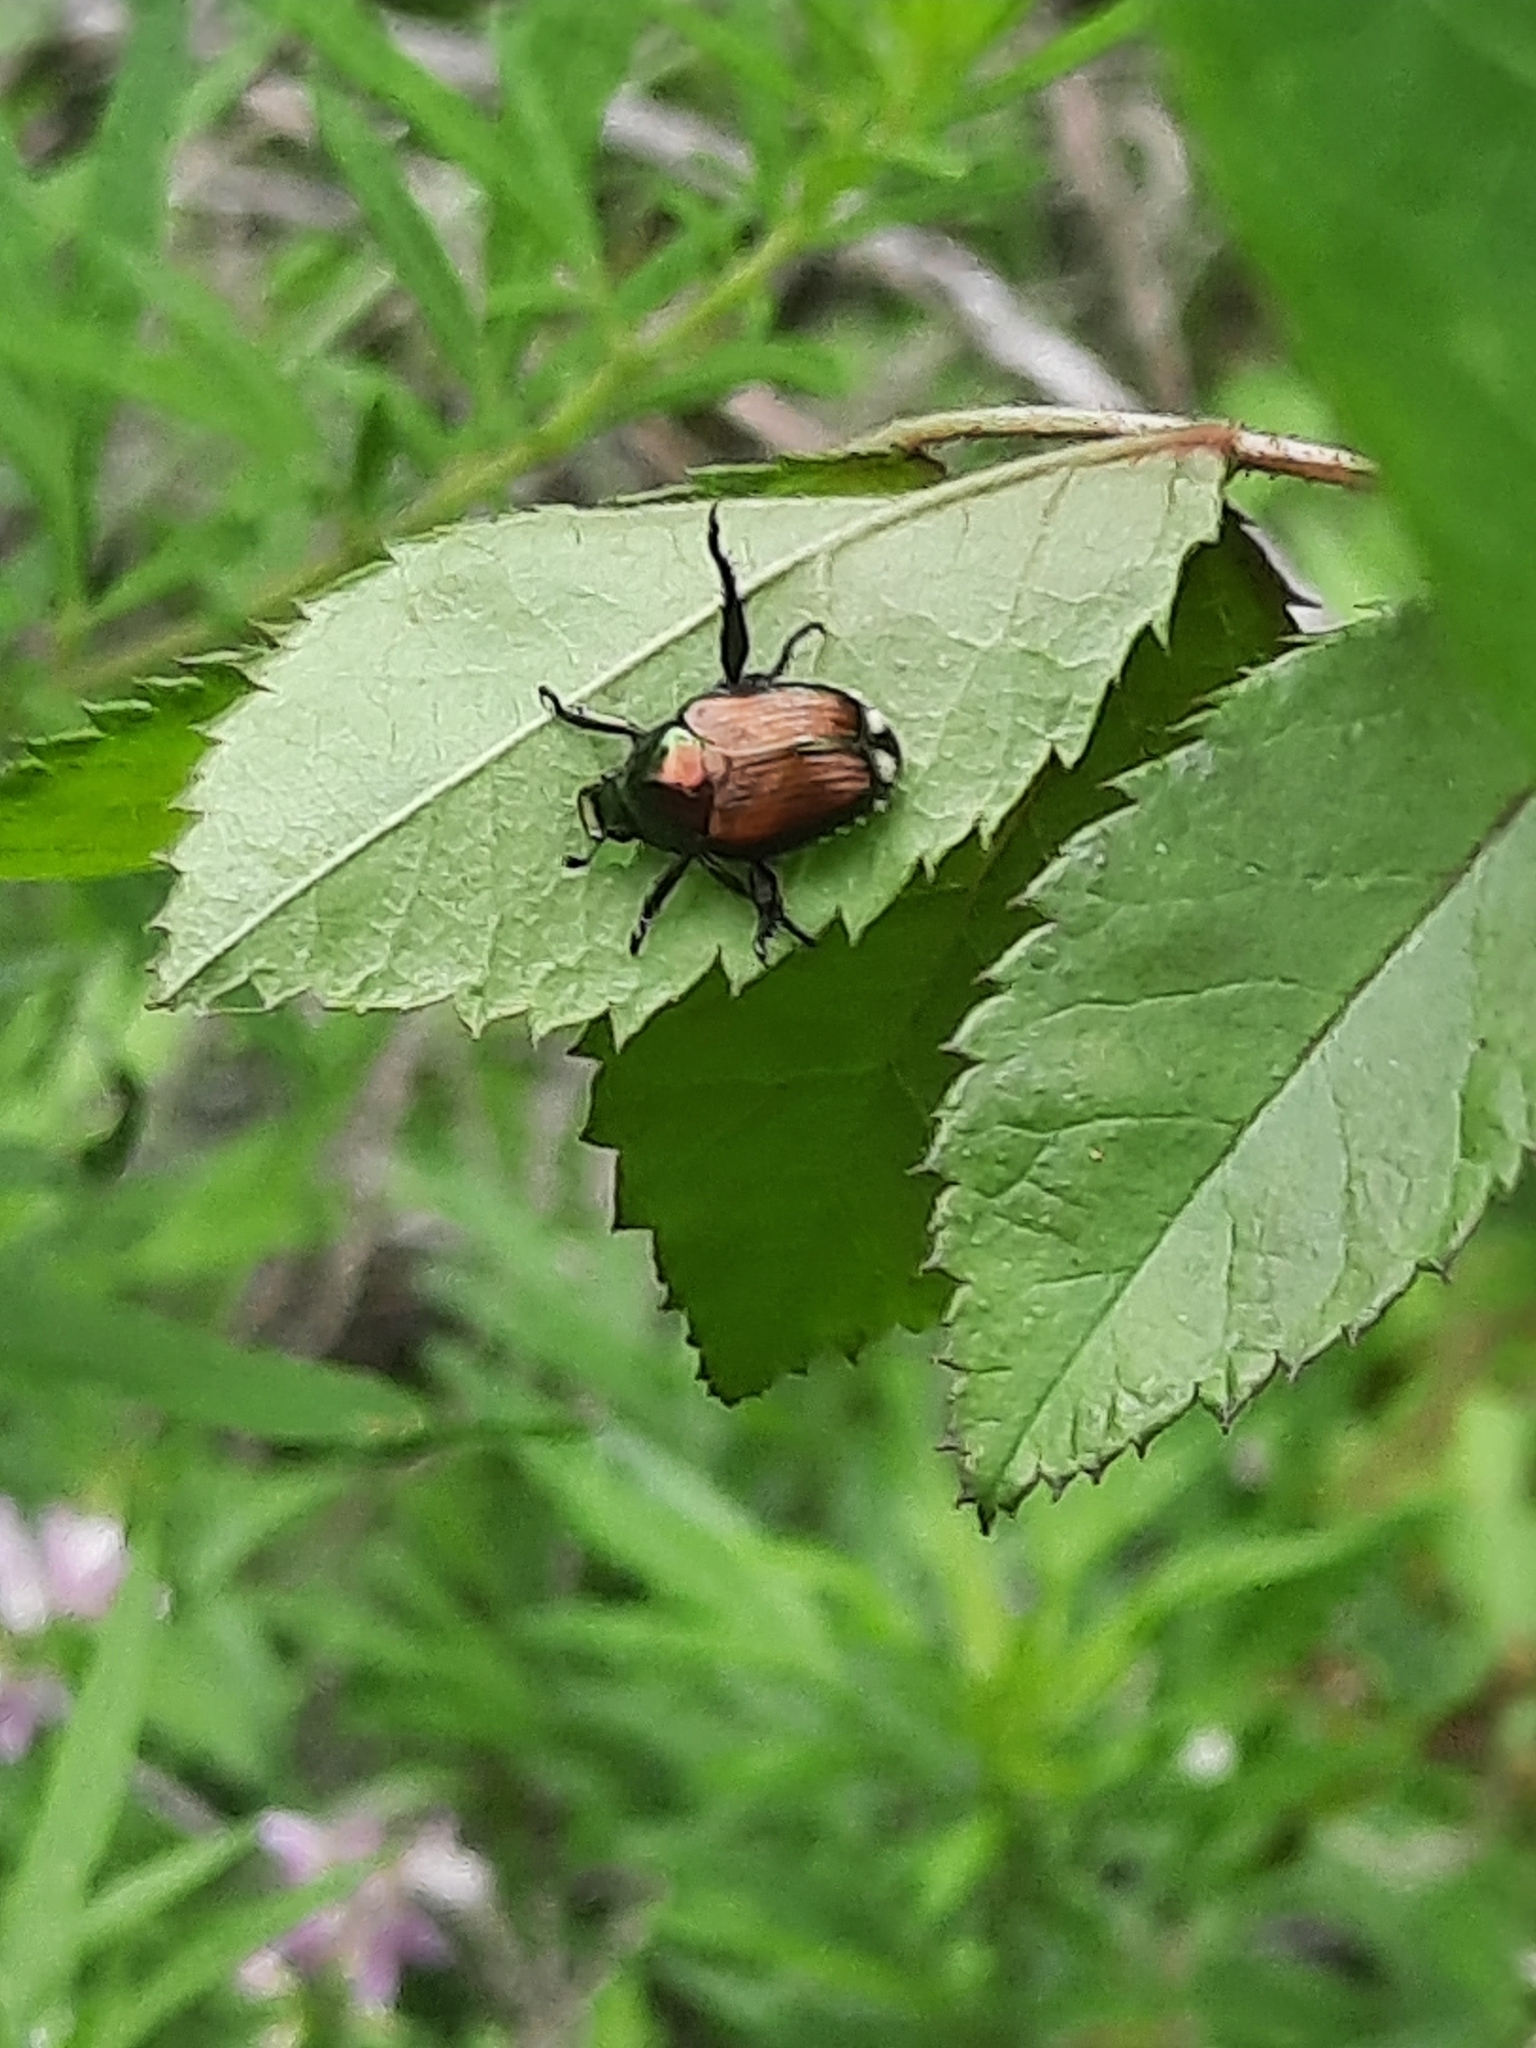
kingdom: Animalia
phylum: Arthropoda
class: Insecta
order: Coleoptera
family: Scarabaeidae
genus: Popillia
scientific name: Popillia japonica
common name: Japanese beetle
